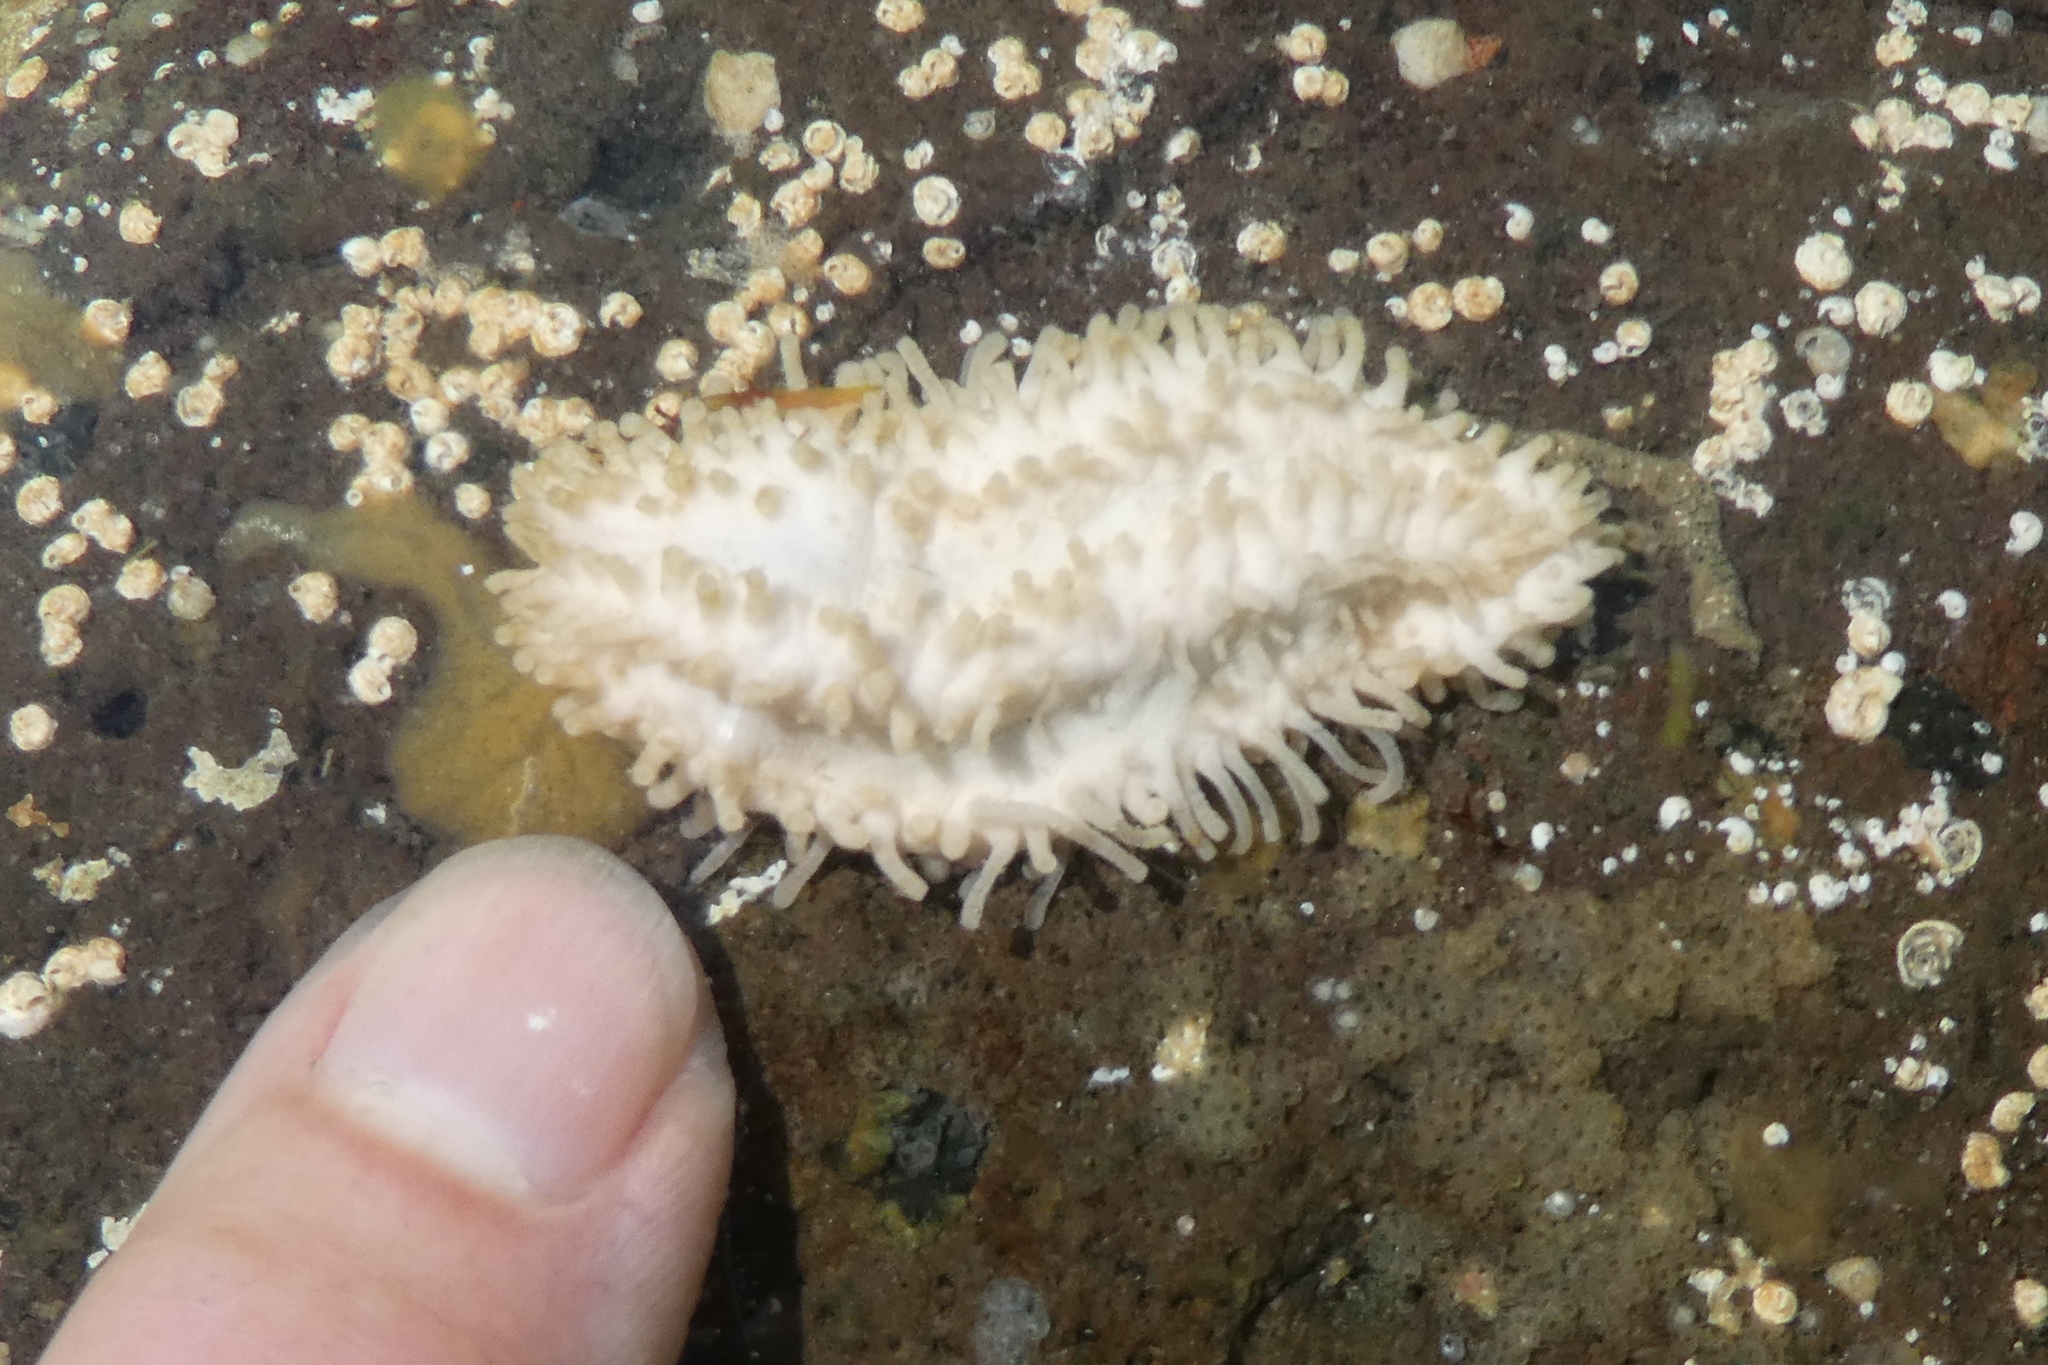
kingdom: Animalia
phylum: Echinodermata
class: Holothuroidea
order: Dendrochirotida
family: Sclerodactylidae
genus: Eupentacta
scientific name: Eupentacta quinquesemita
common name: Pentamerous sea cucumber
